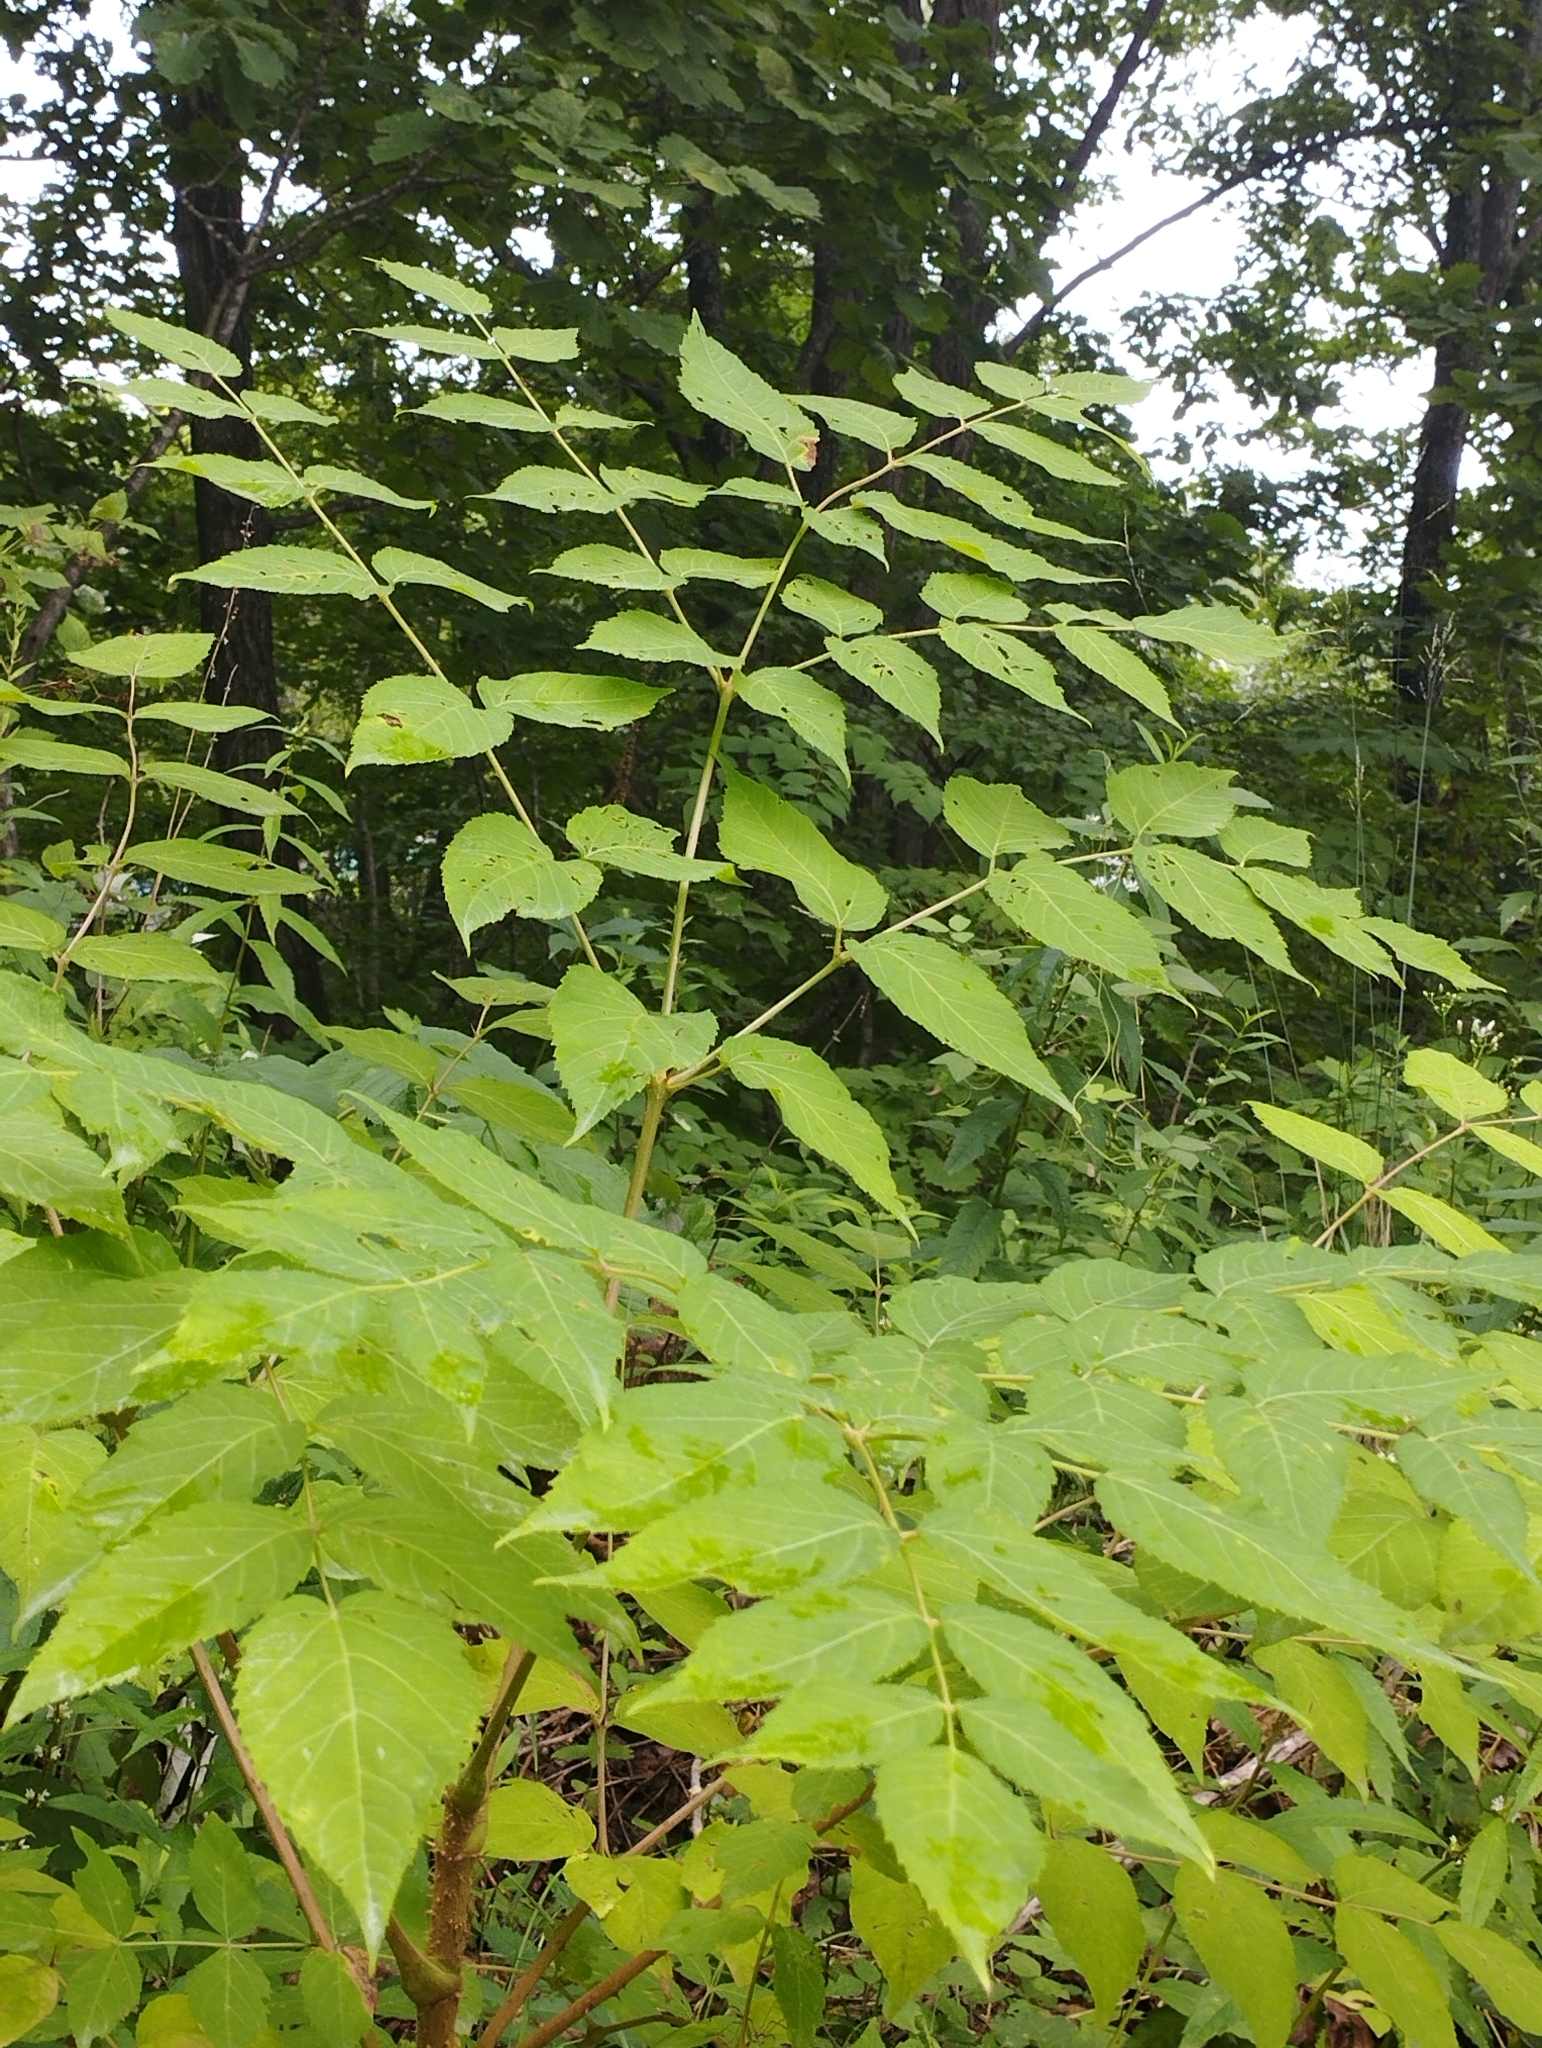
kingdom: Plantae
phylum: Tracheophyta
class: Magnoliopsida
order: Apiales
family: Araliaceae
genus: Aralia
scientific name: Aralia elata
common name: Japanese angelica-tree
